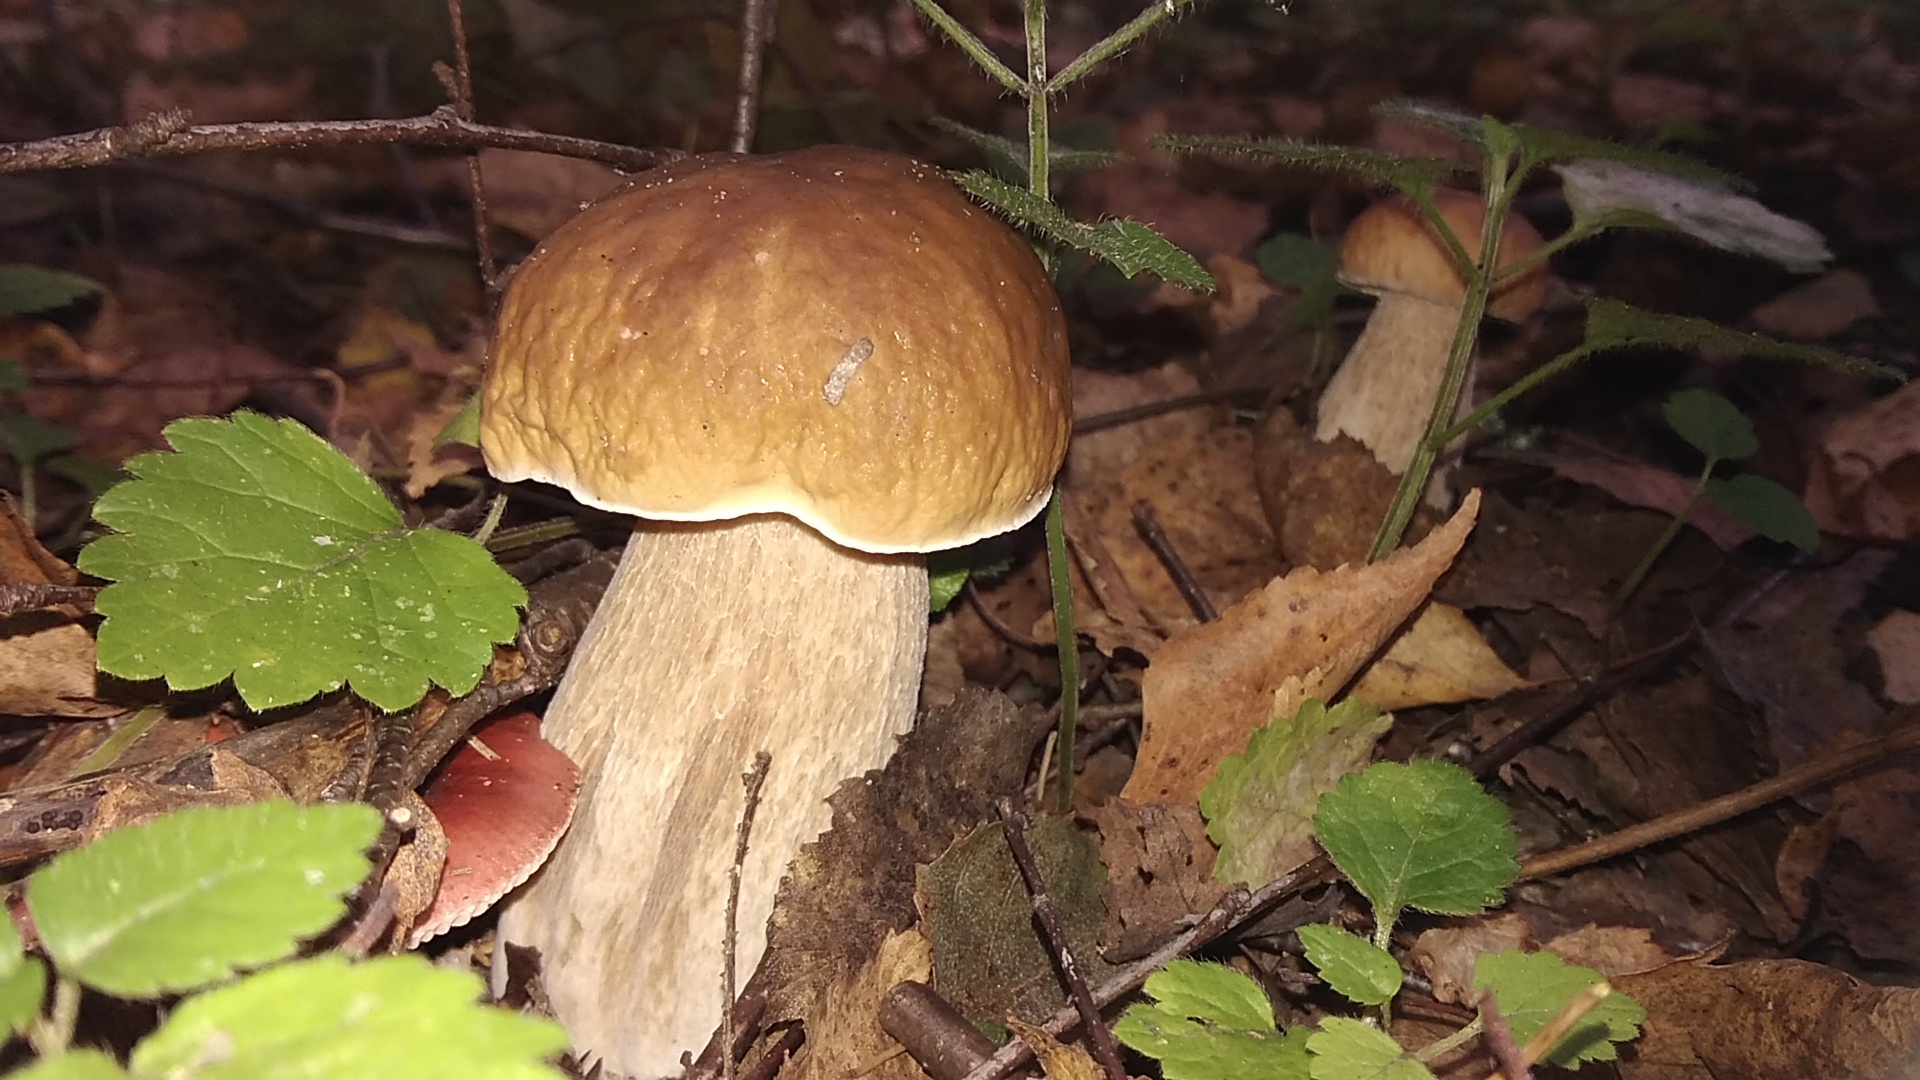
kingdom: Fungi
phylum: Basidiomycota
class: Agaricomycetes
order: Boletales
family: Boletaceae
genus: Boletus
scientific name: Boletus edulis
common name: Cep
